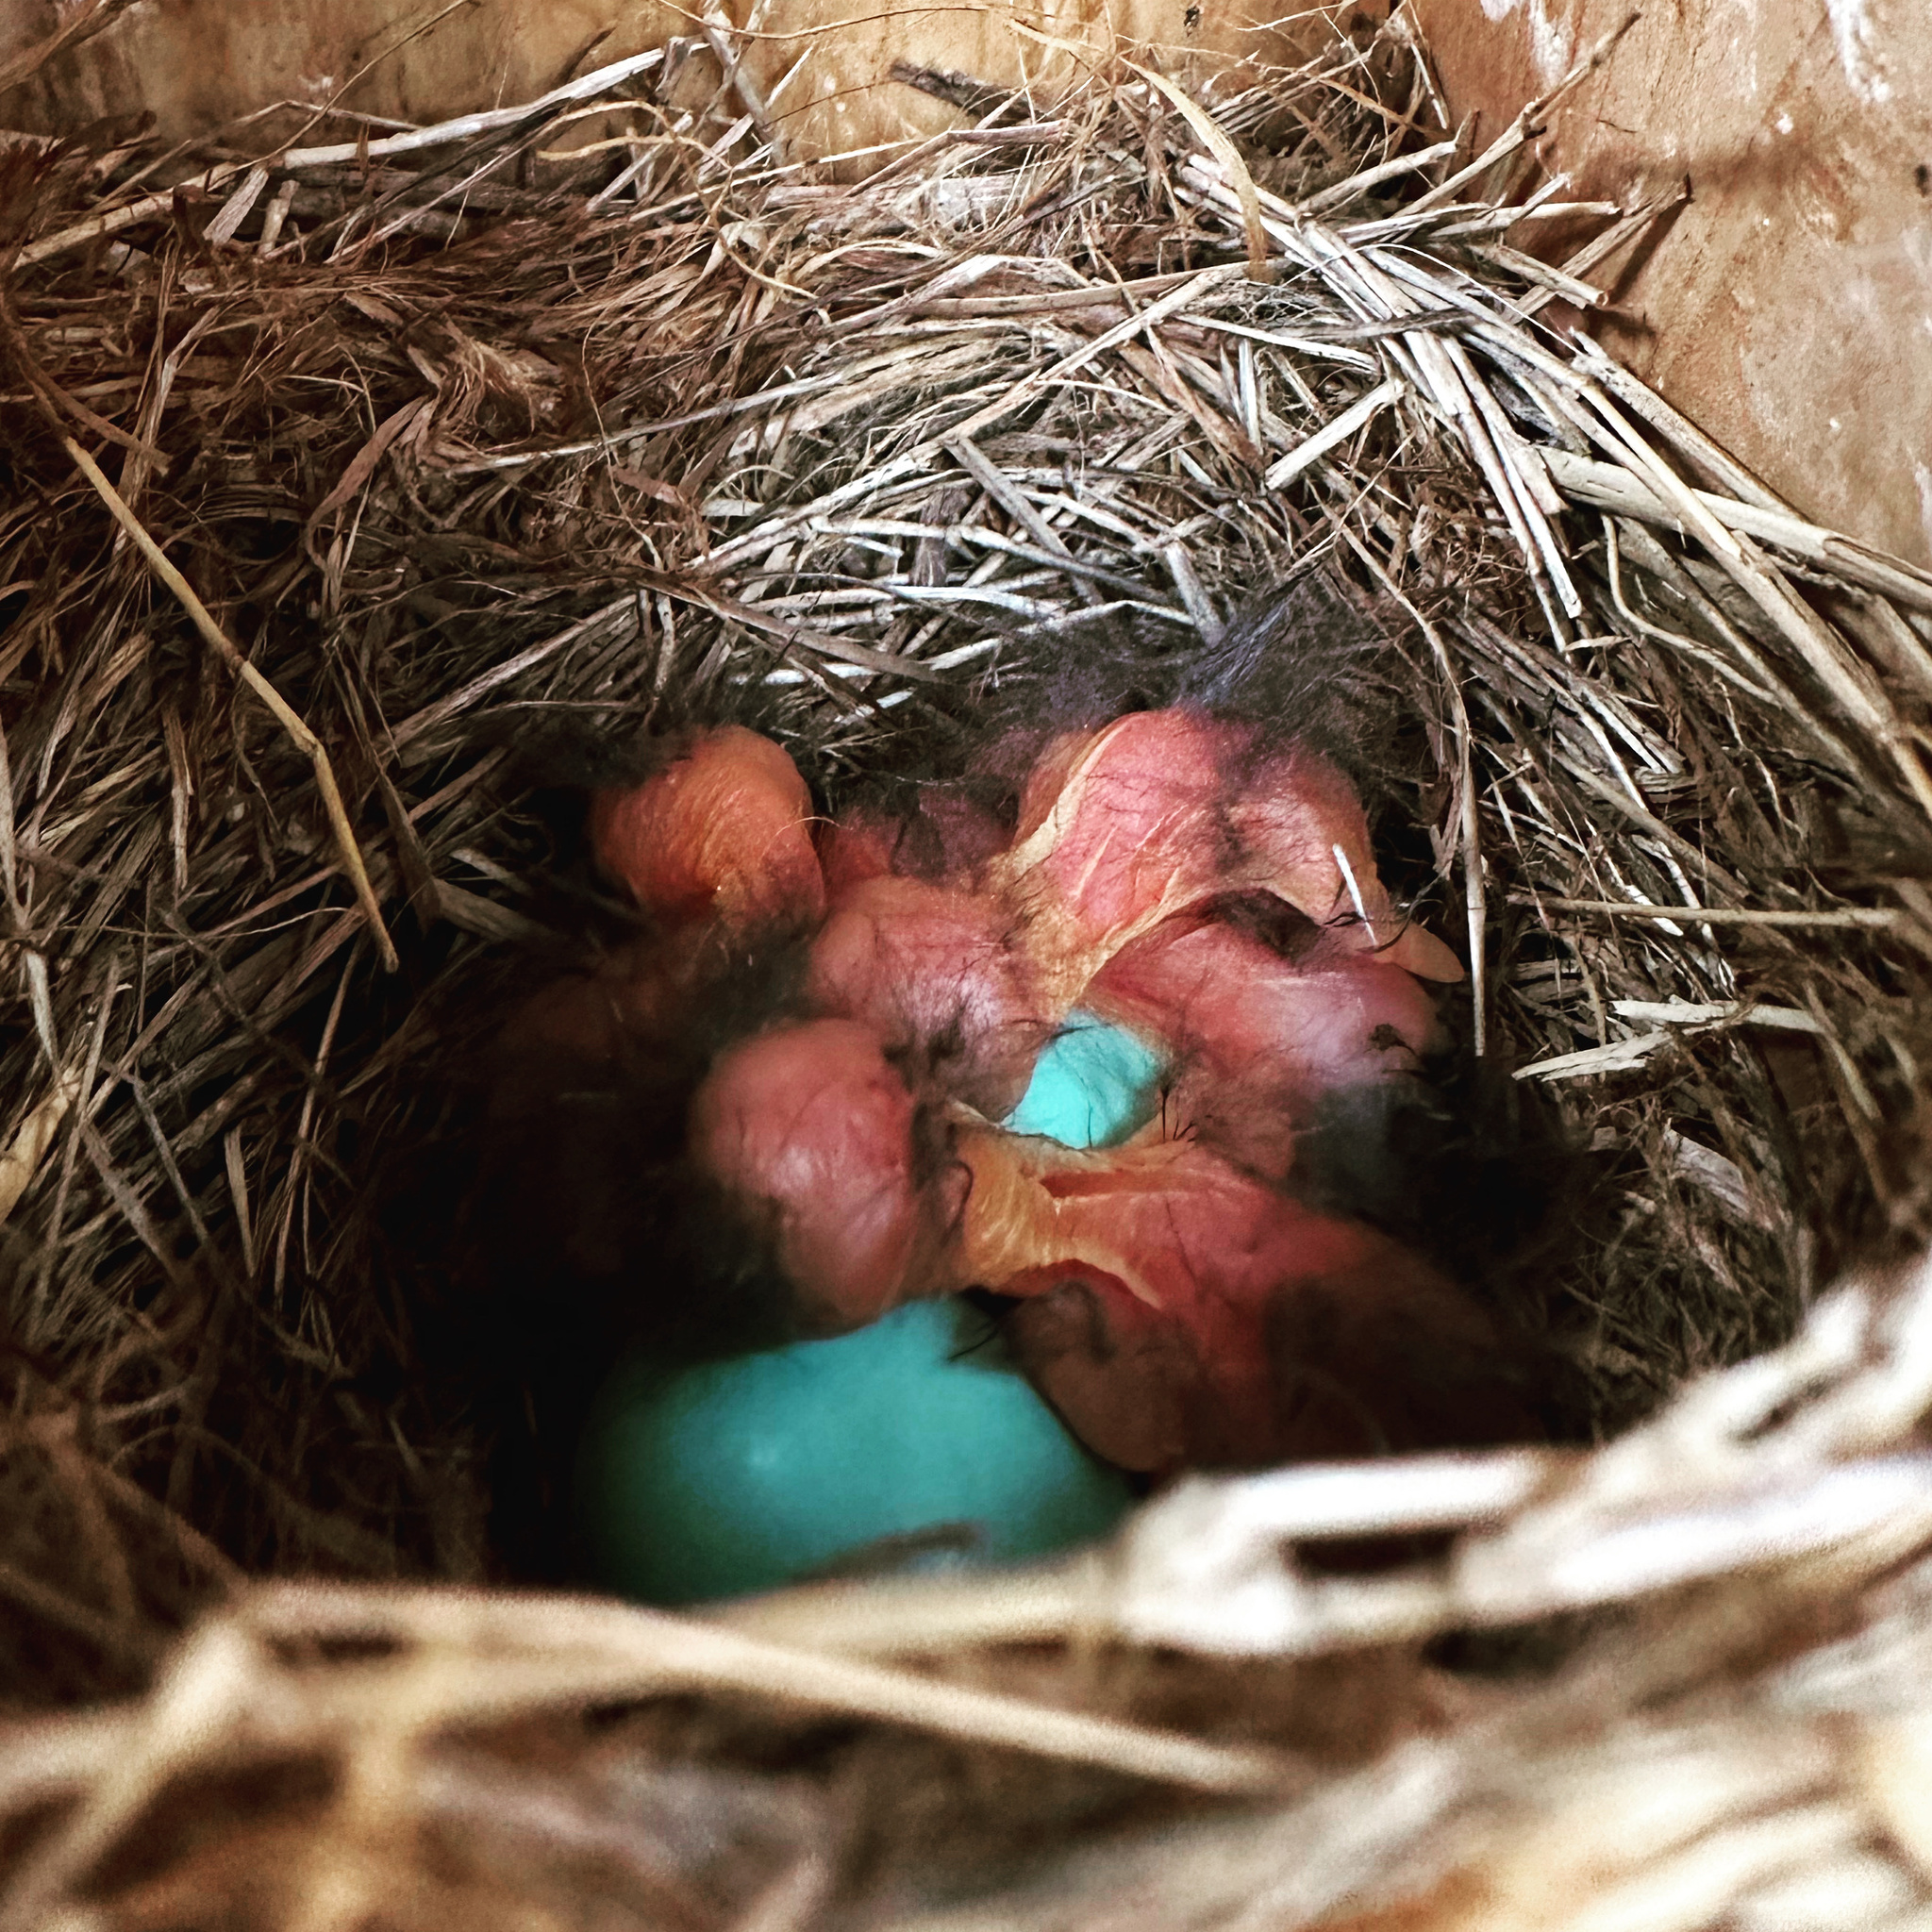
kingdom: Animalia
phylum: Chordata
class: Aves
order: Passeriformes
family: Turdidae
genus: Sialia
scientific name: Sialia sialis
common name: Eastern bluebird
